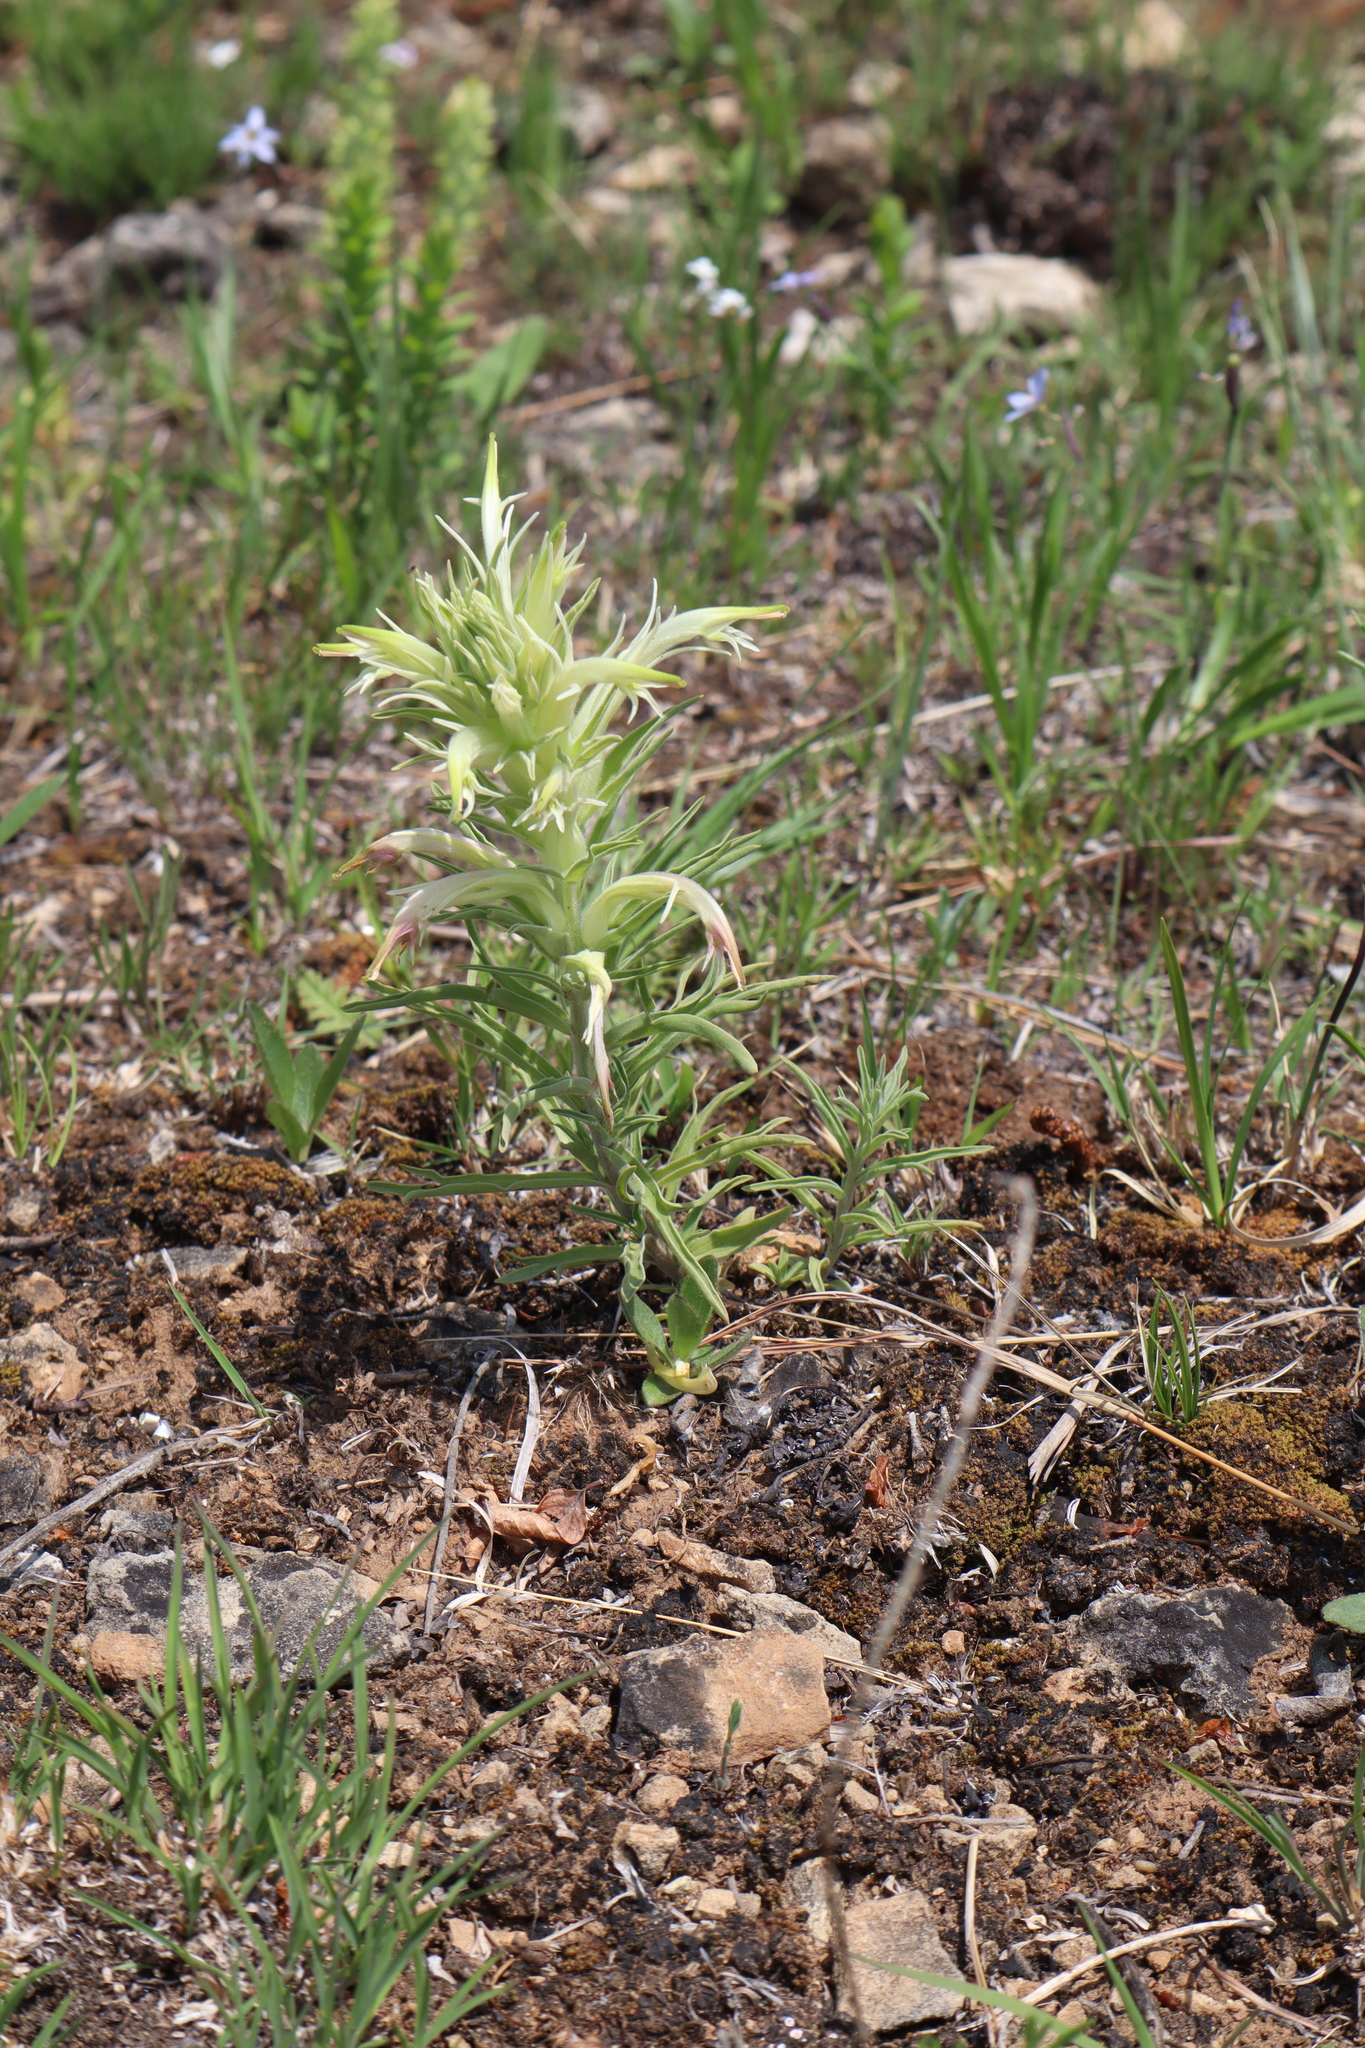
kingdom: Plantae
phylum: Tracheophyta
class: Magnoliopsida
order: Lamiales
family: Orobanchaceae
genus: Castilleja
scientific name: Castilleja sessiliflora
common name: Downy paintbrush
